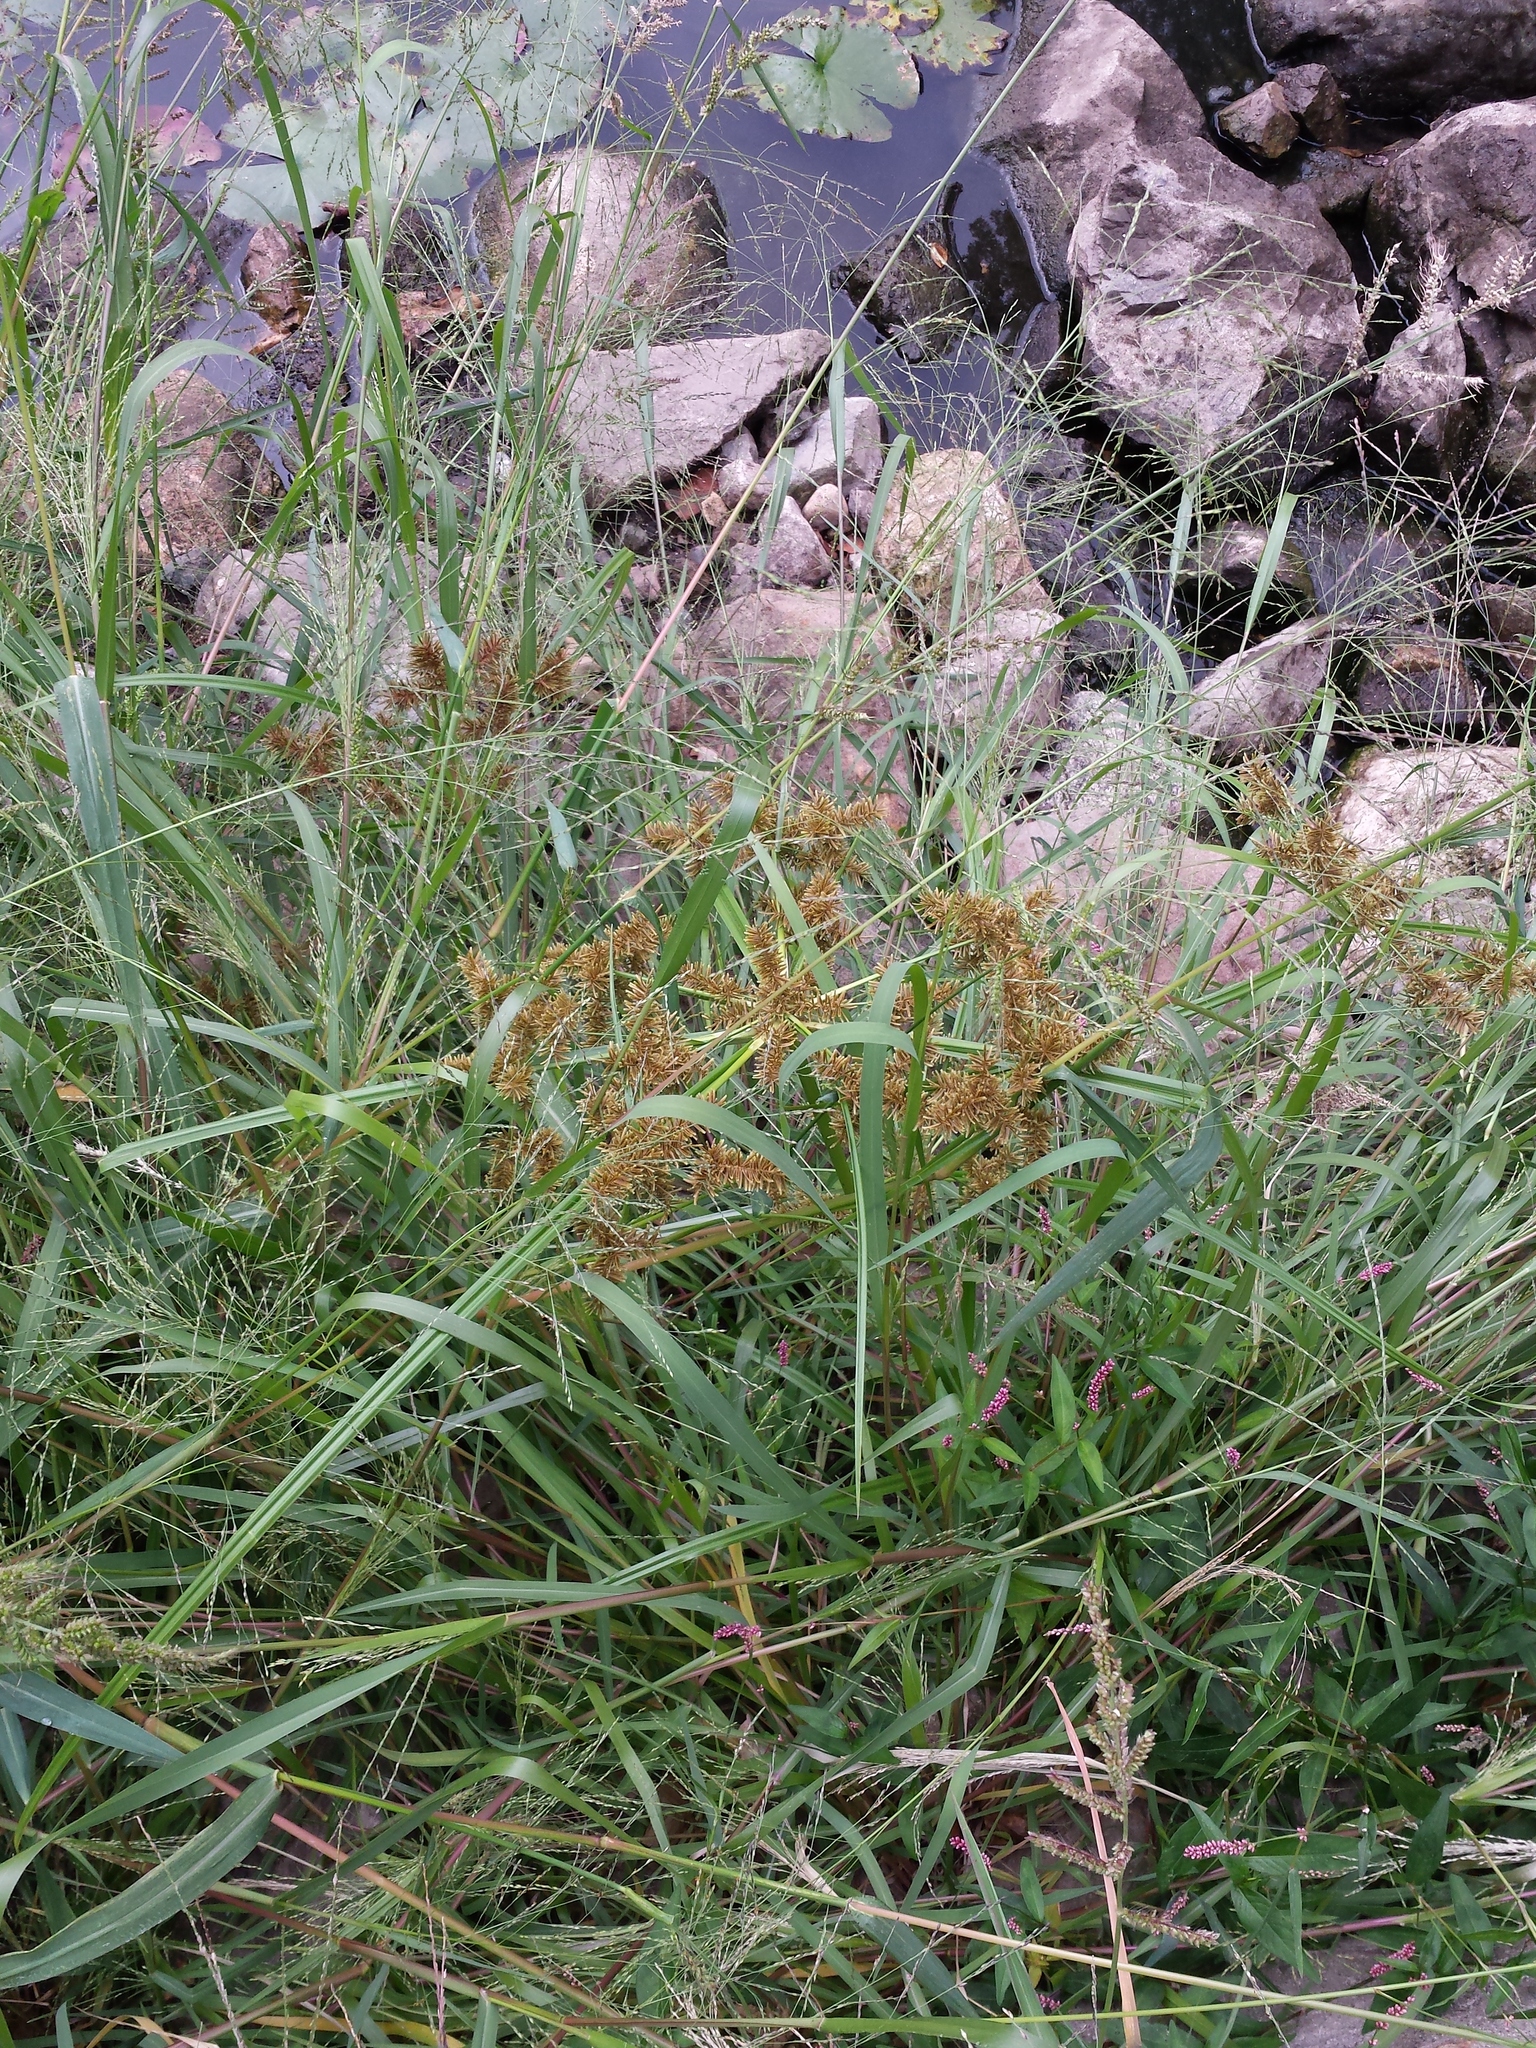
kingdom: Plantae
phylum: Tracheophyta
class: Liliopsida
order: Poales
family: Cyperaceae
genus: Cyperus
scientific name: Cyperus erythrorhizos
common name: Red-root flat sedge
